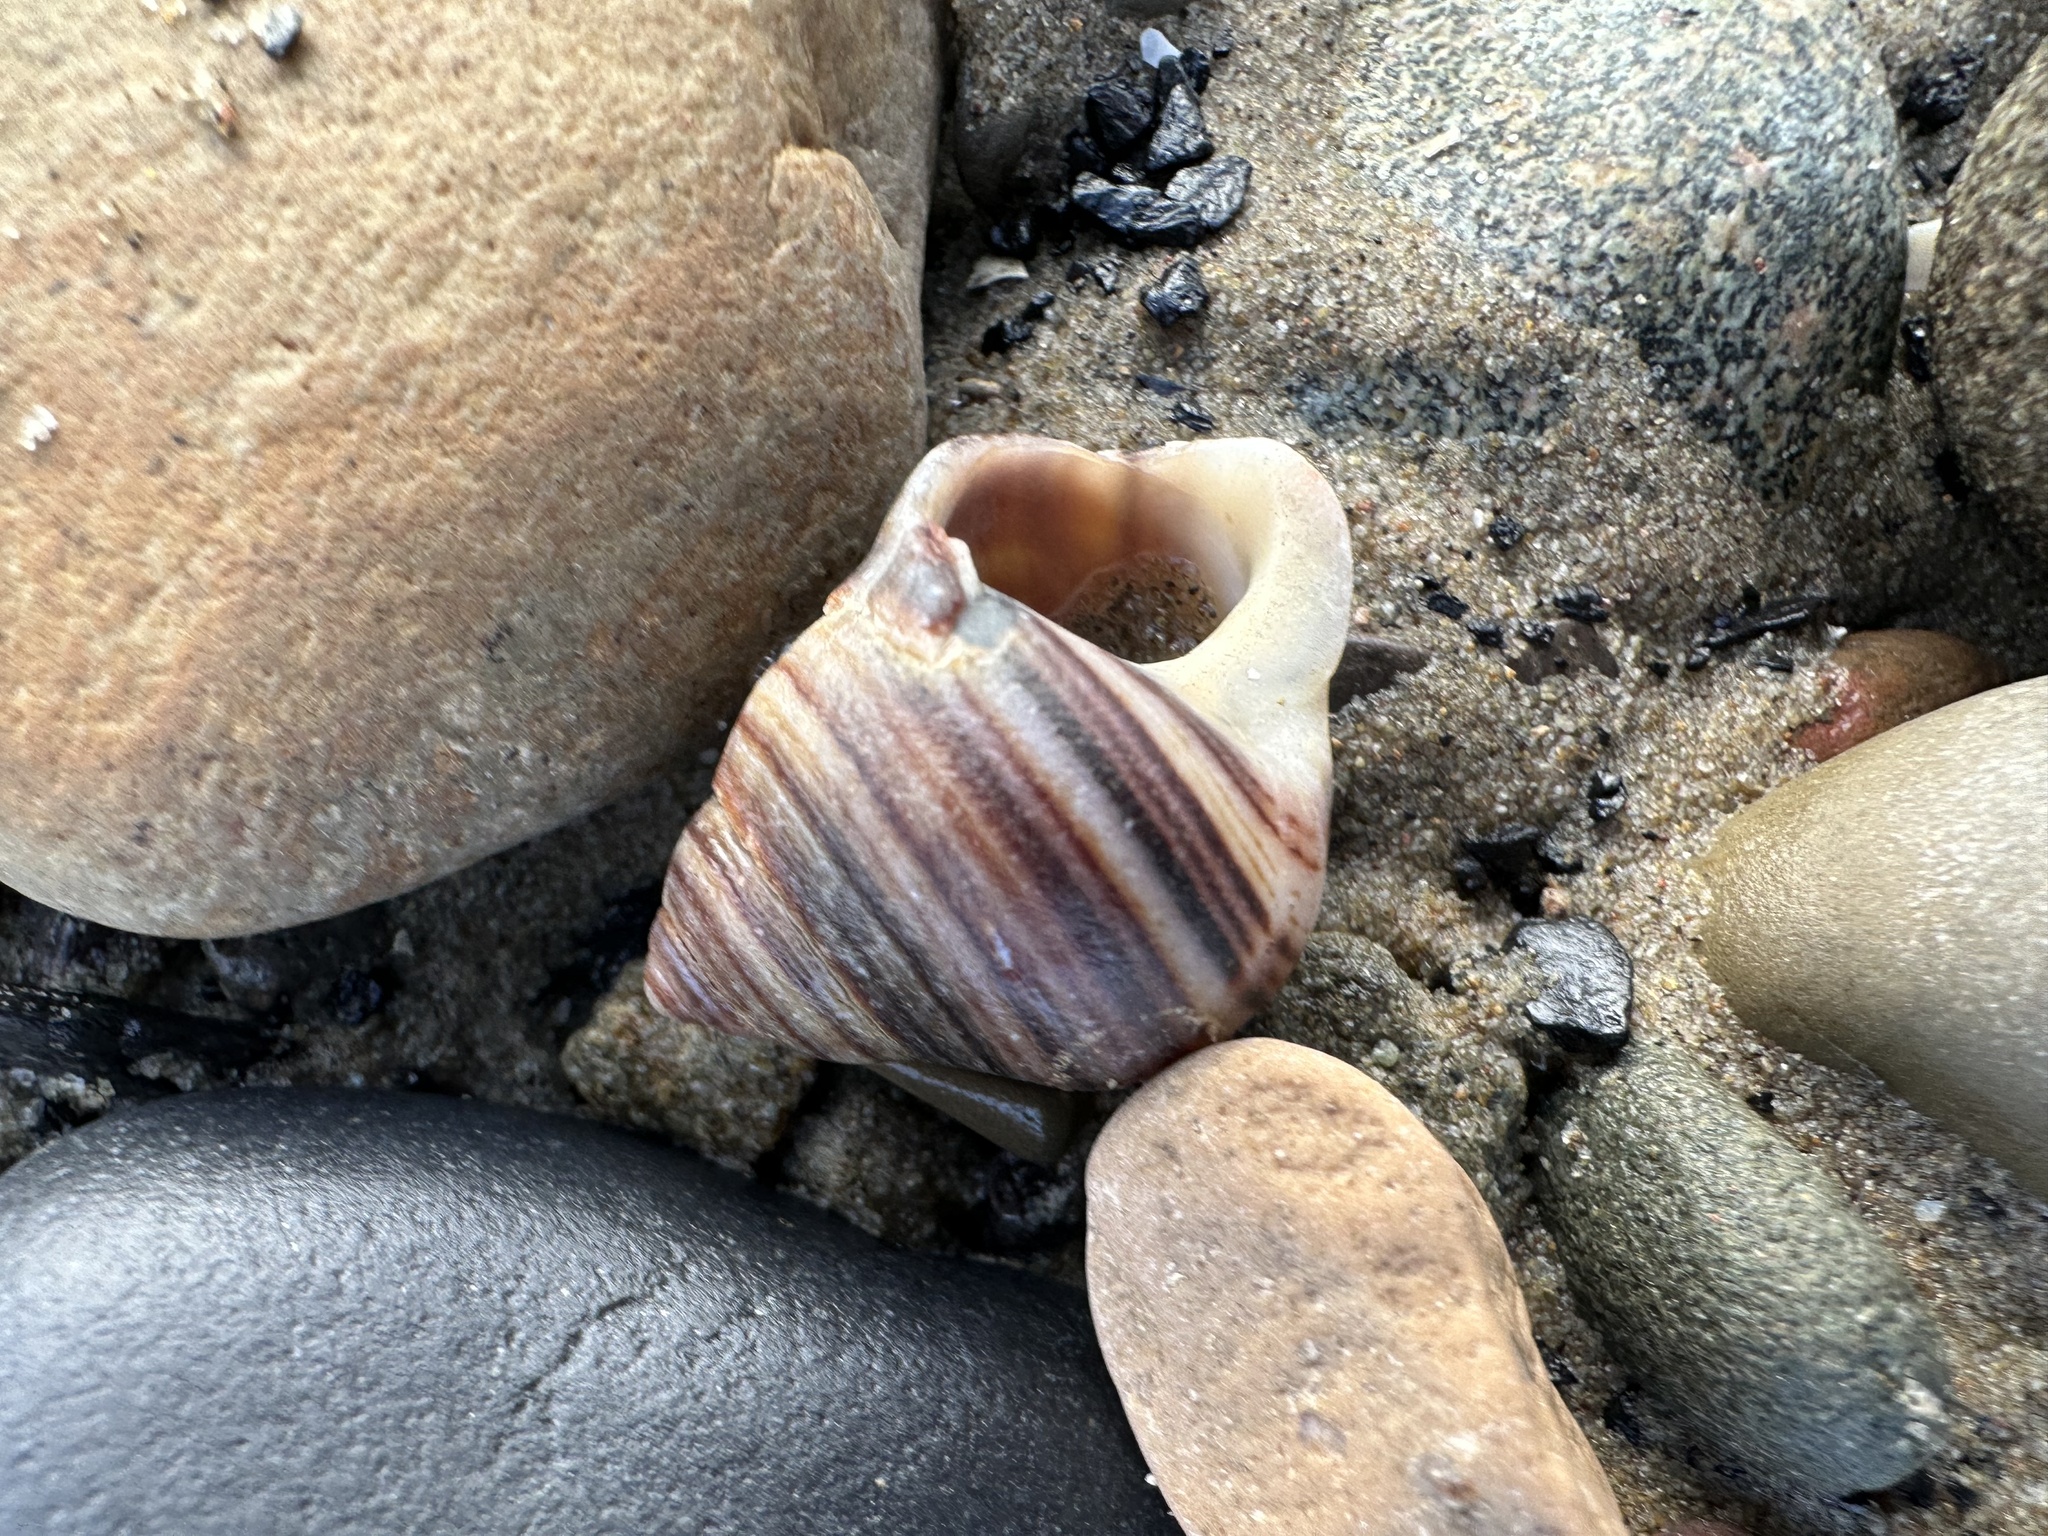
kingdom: Animalia
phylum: Mollusca
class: Gastropoda
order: Littorinimorpha
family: Littorinidae
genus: Littorina
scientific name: Littorina littorea
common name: Common periwinkle
